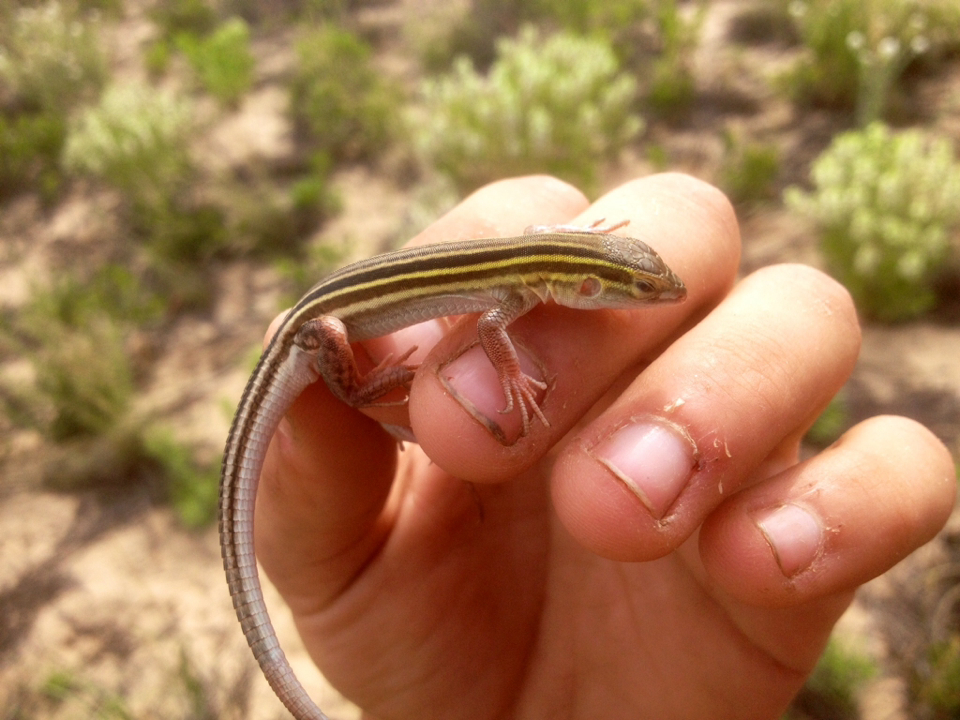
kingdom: Animalia
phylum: Chordata
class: Squamata
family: Teiidae
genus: Aspidoscelis
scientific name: Aspidoscelis sexlineatus
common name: Six-lined racerunner
